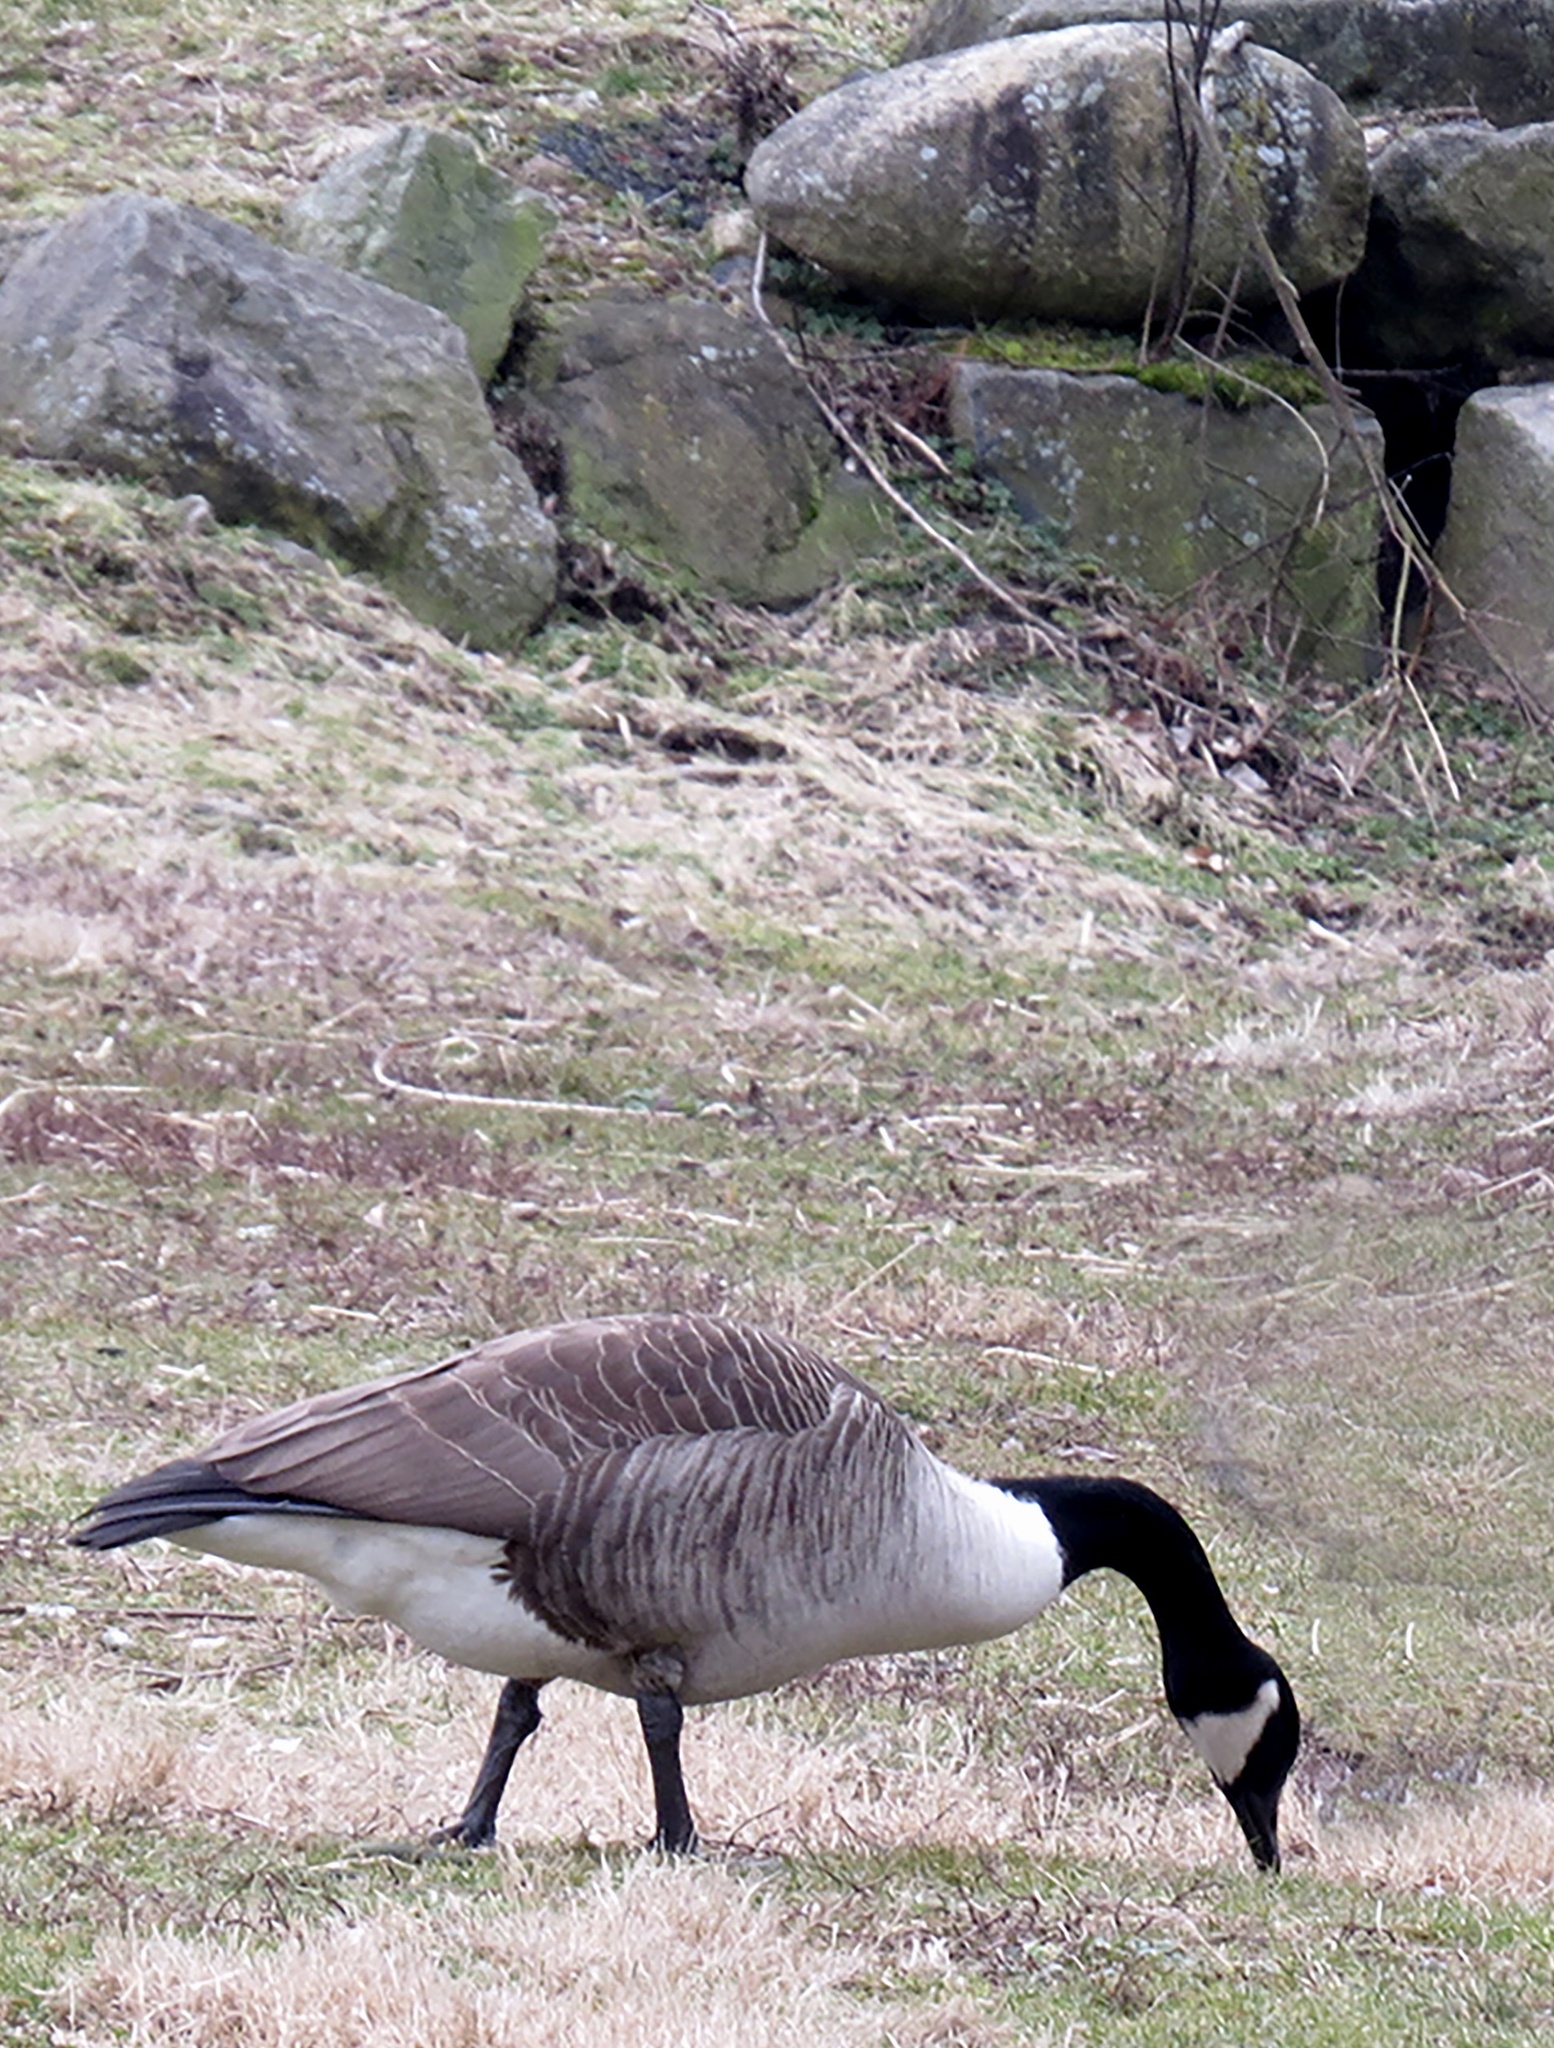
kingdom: Animalia
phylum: Chordata
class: Aves
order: Anseriformes
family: Anatidae
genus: Branta
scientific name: Branta canadensis
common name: Canada goose
